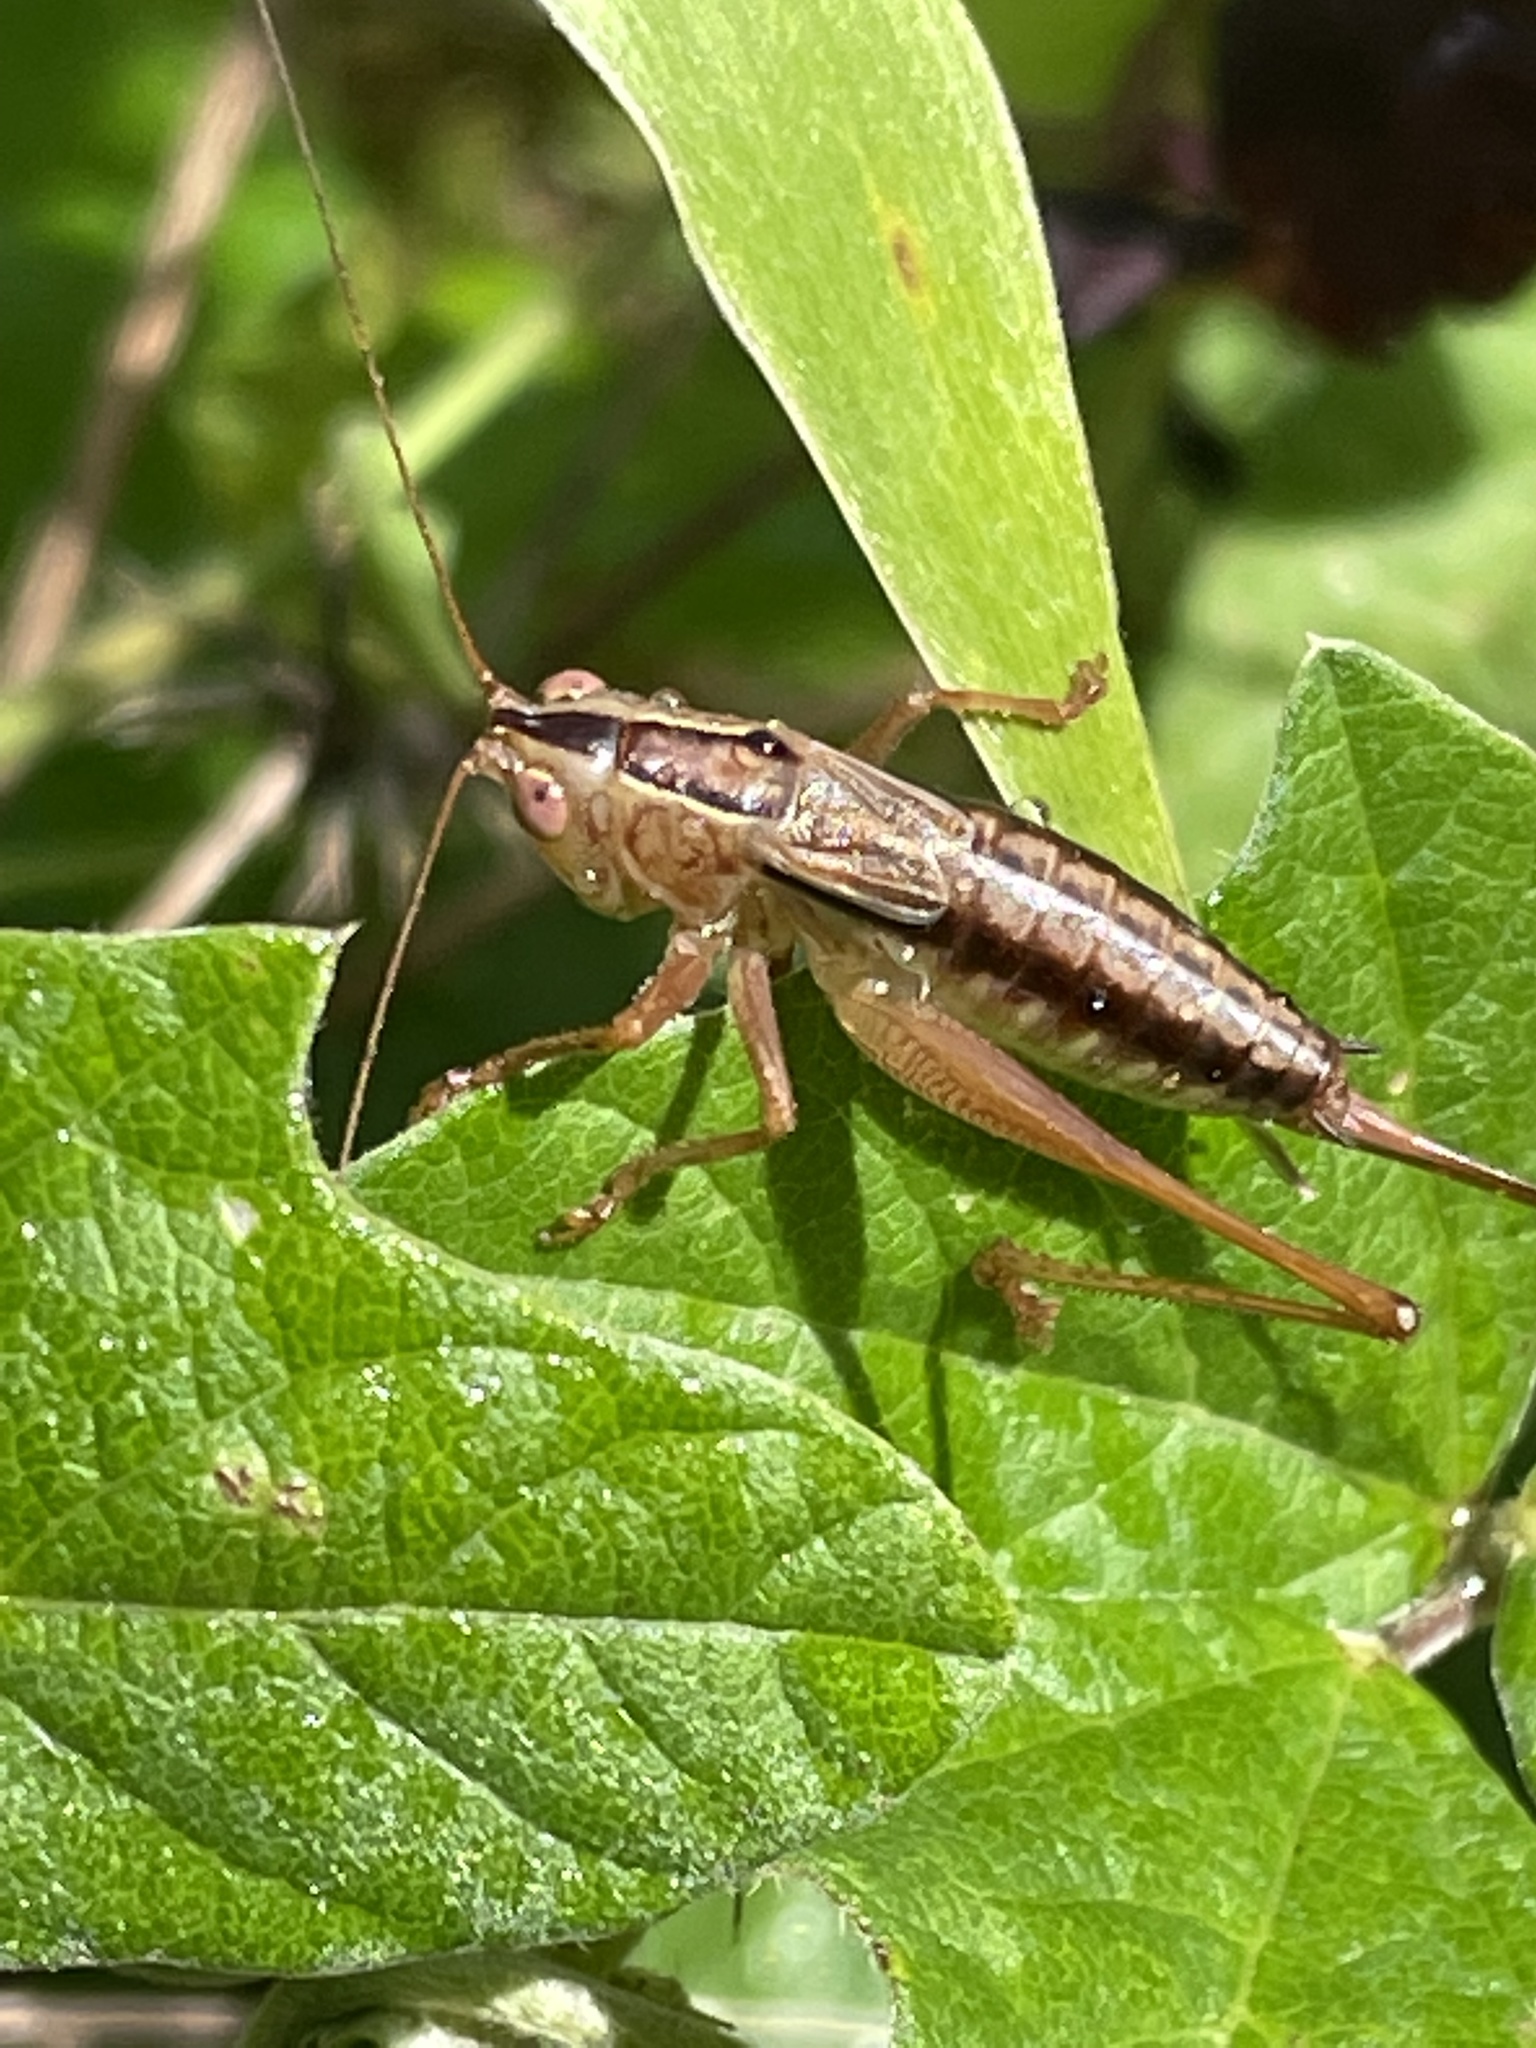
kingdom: Animalia
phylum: Arthropoda
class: Insecta
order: Orthoptera
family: Tettigoniidae
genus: Conocephalus
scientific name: Conocephalus semivittatus
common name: Blackish meadow katydid
